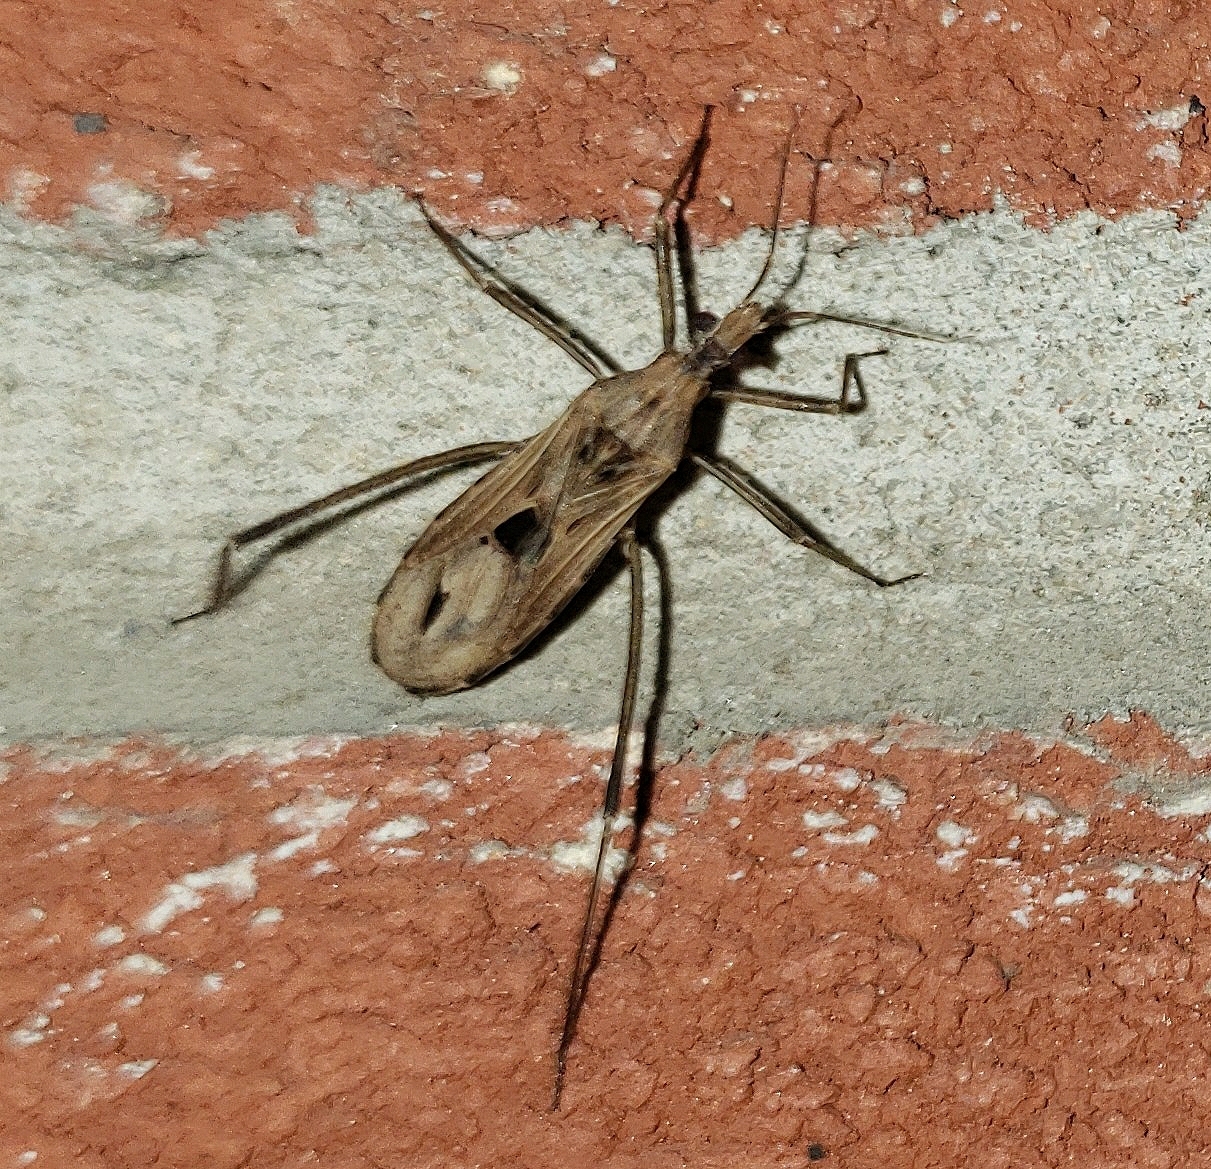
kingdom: Animalia
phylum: Arthropoda
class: Insecta
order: Hemiptera
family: Reduviidae
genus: Stenopoda
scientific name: Stenopoda spinulosa
